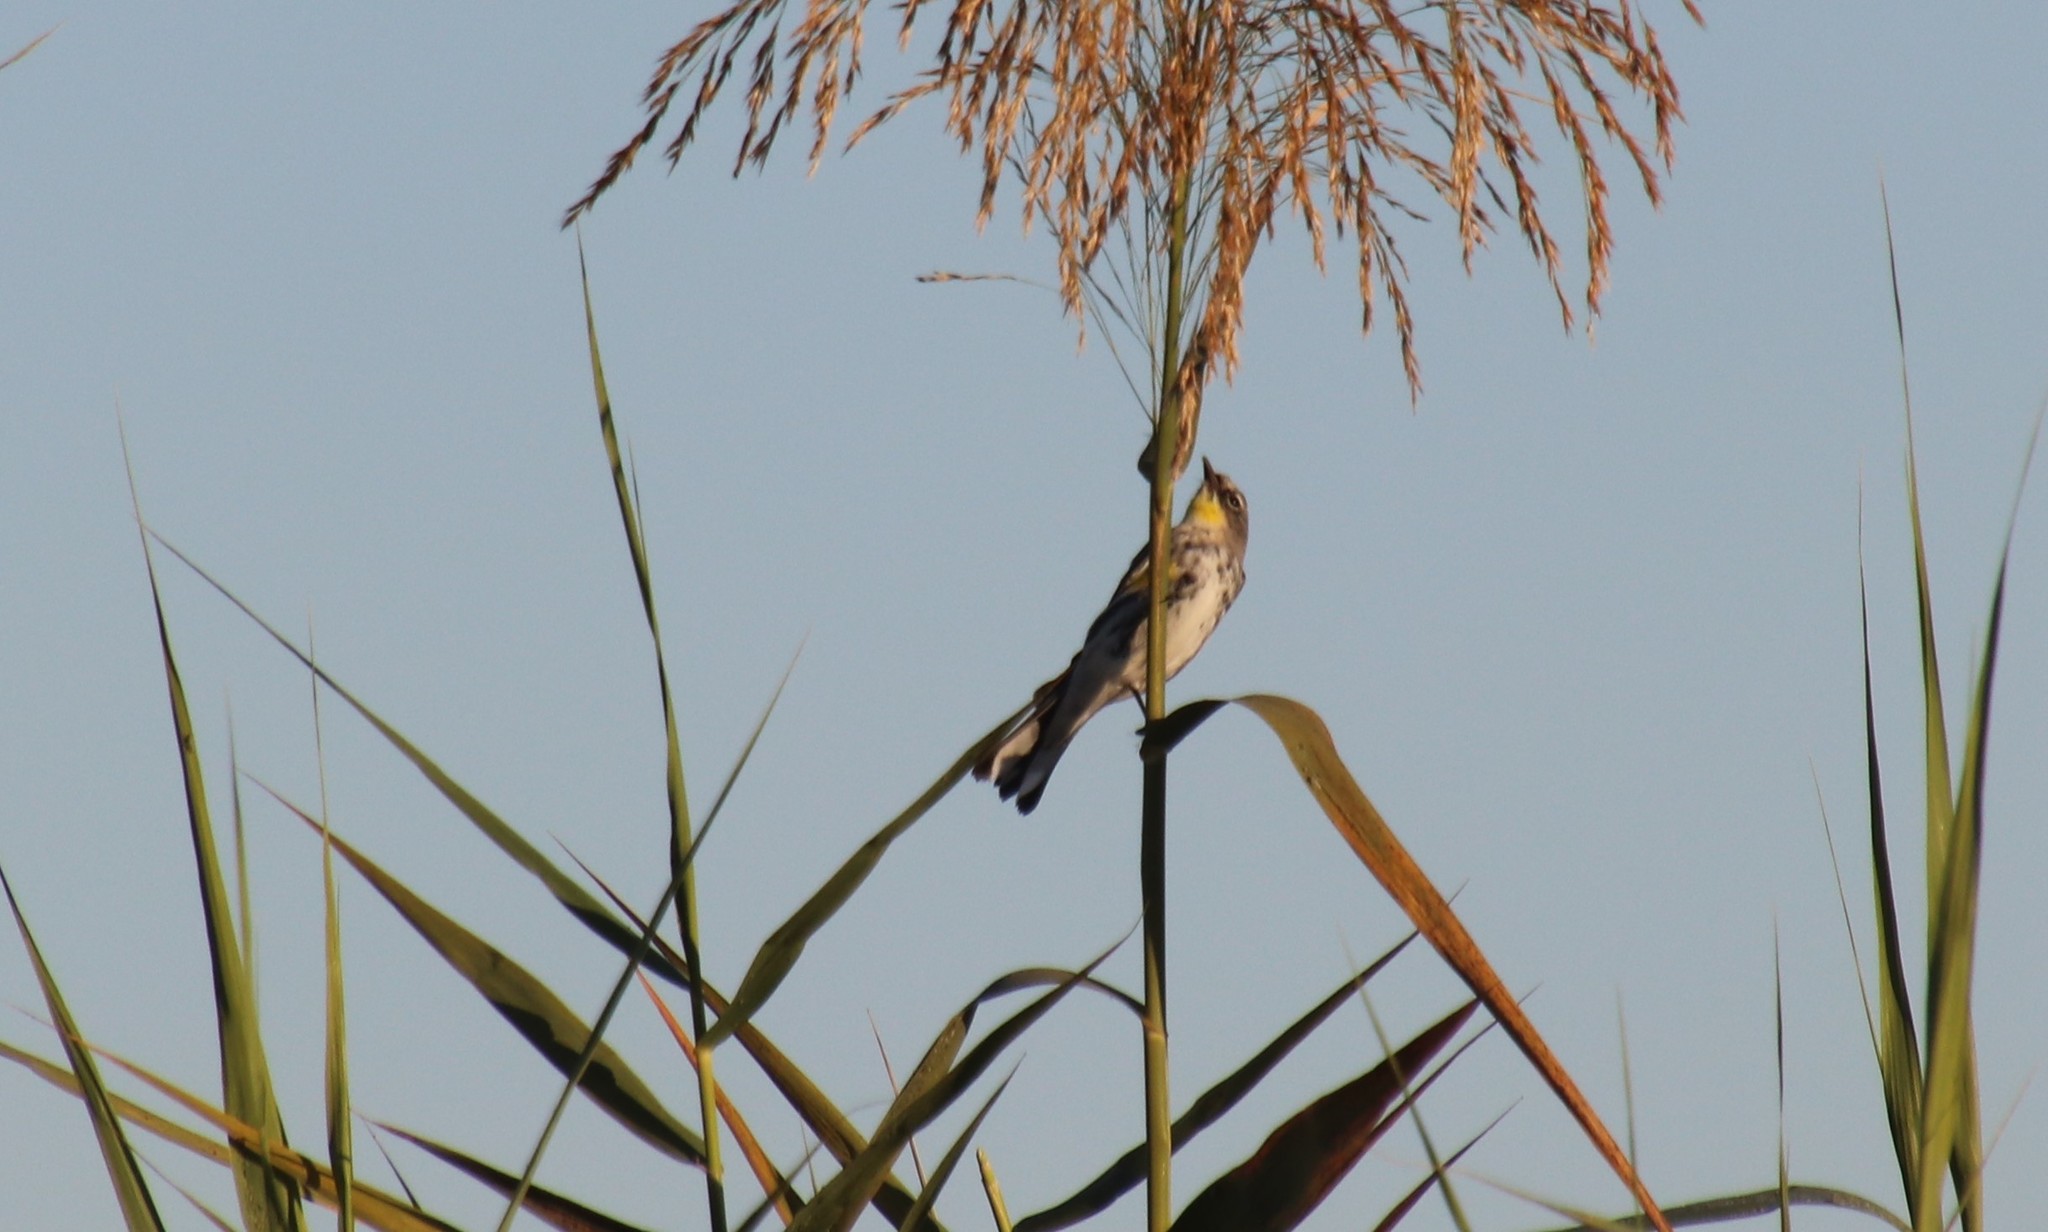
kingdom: Animalia
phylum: Chordata
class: Aves
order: Passeriformes
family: Parulidae
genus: Setophaga
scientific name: Setophaga coronata
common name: Myrtle warbler
